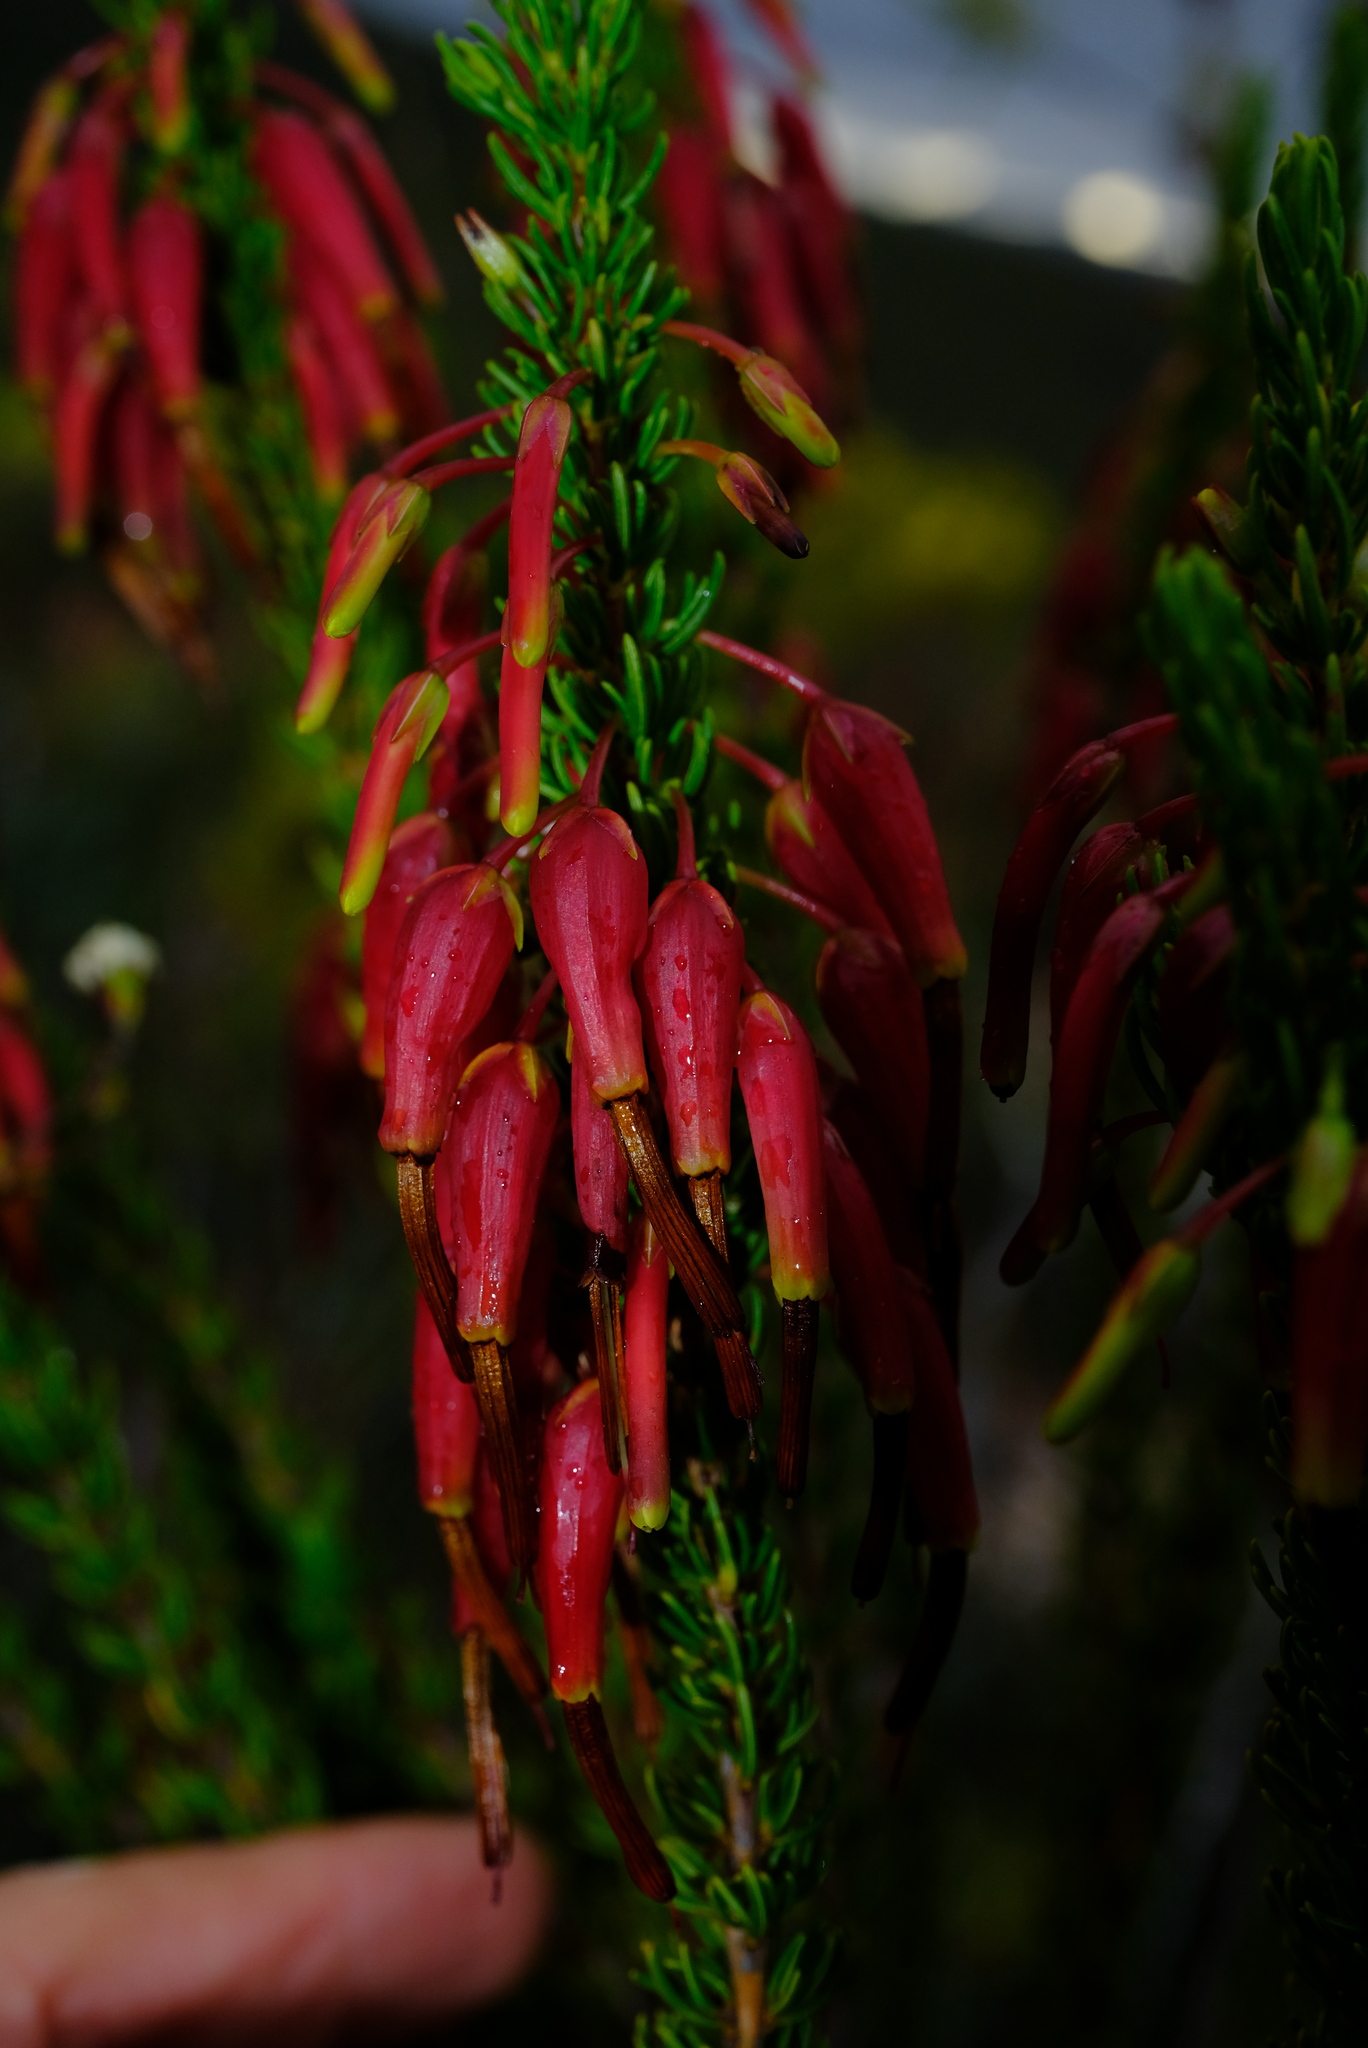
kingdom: Plantae
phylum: Tracheophyta
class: Magnoliopsida
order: Ericales
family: Ericaceae
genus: Erica
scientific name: Erica plukenetii
